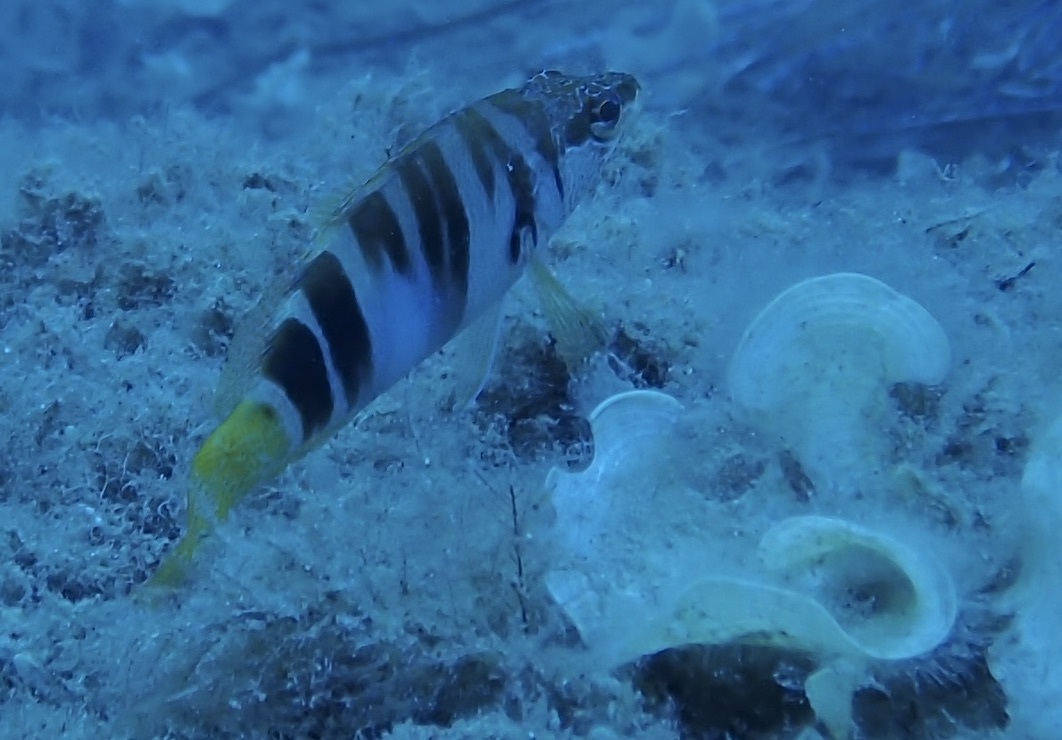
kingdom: Animalia
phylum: Chordata
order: Perciformes
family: Serranidae
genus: Serranus
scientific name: Serranus scriba
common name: Painted comber
